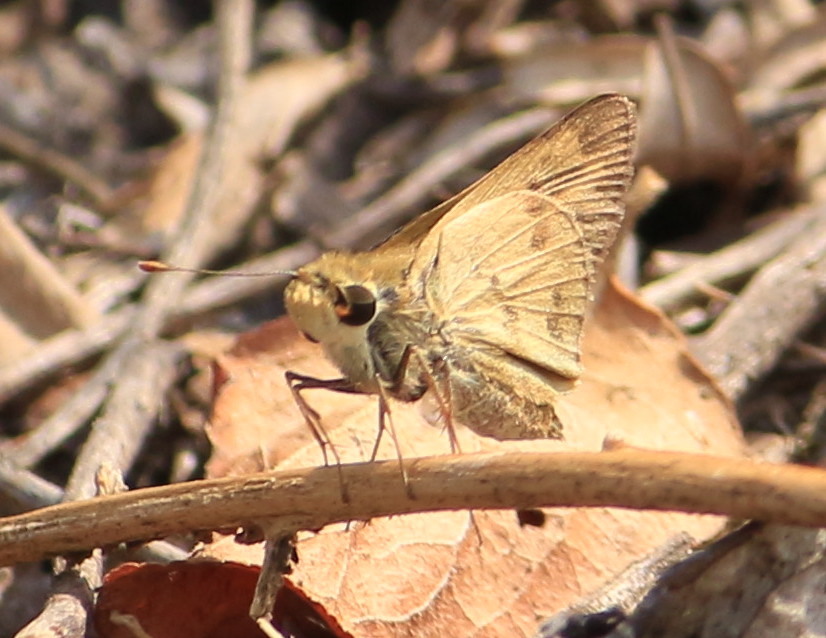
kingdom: Animalia
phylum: Arthropoda
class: Insecta
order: Lepidoptera
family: Hesperiidae
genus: Polites
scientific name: Polites vibex
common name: Whirlabout
